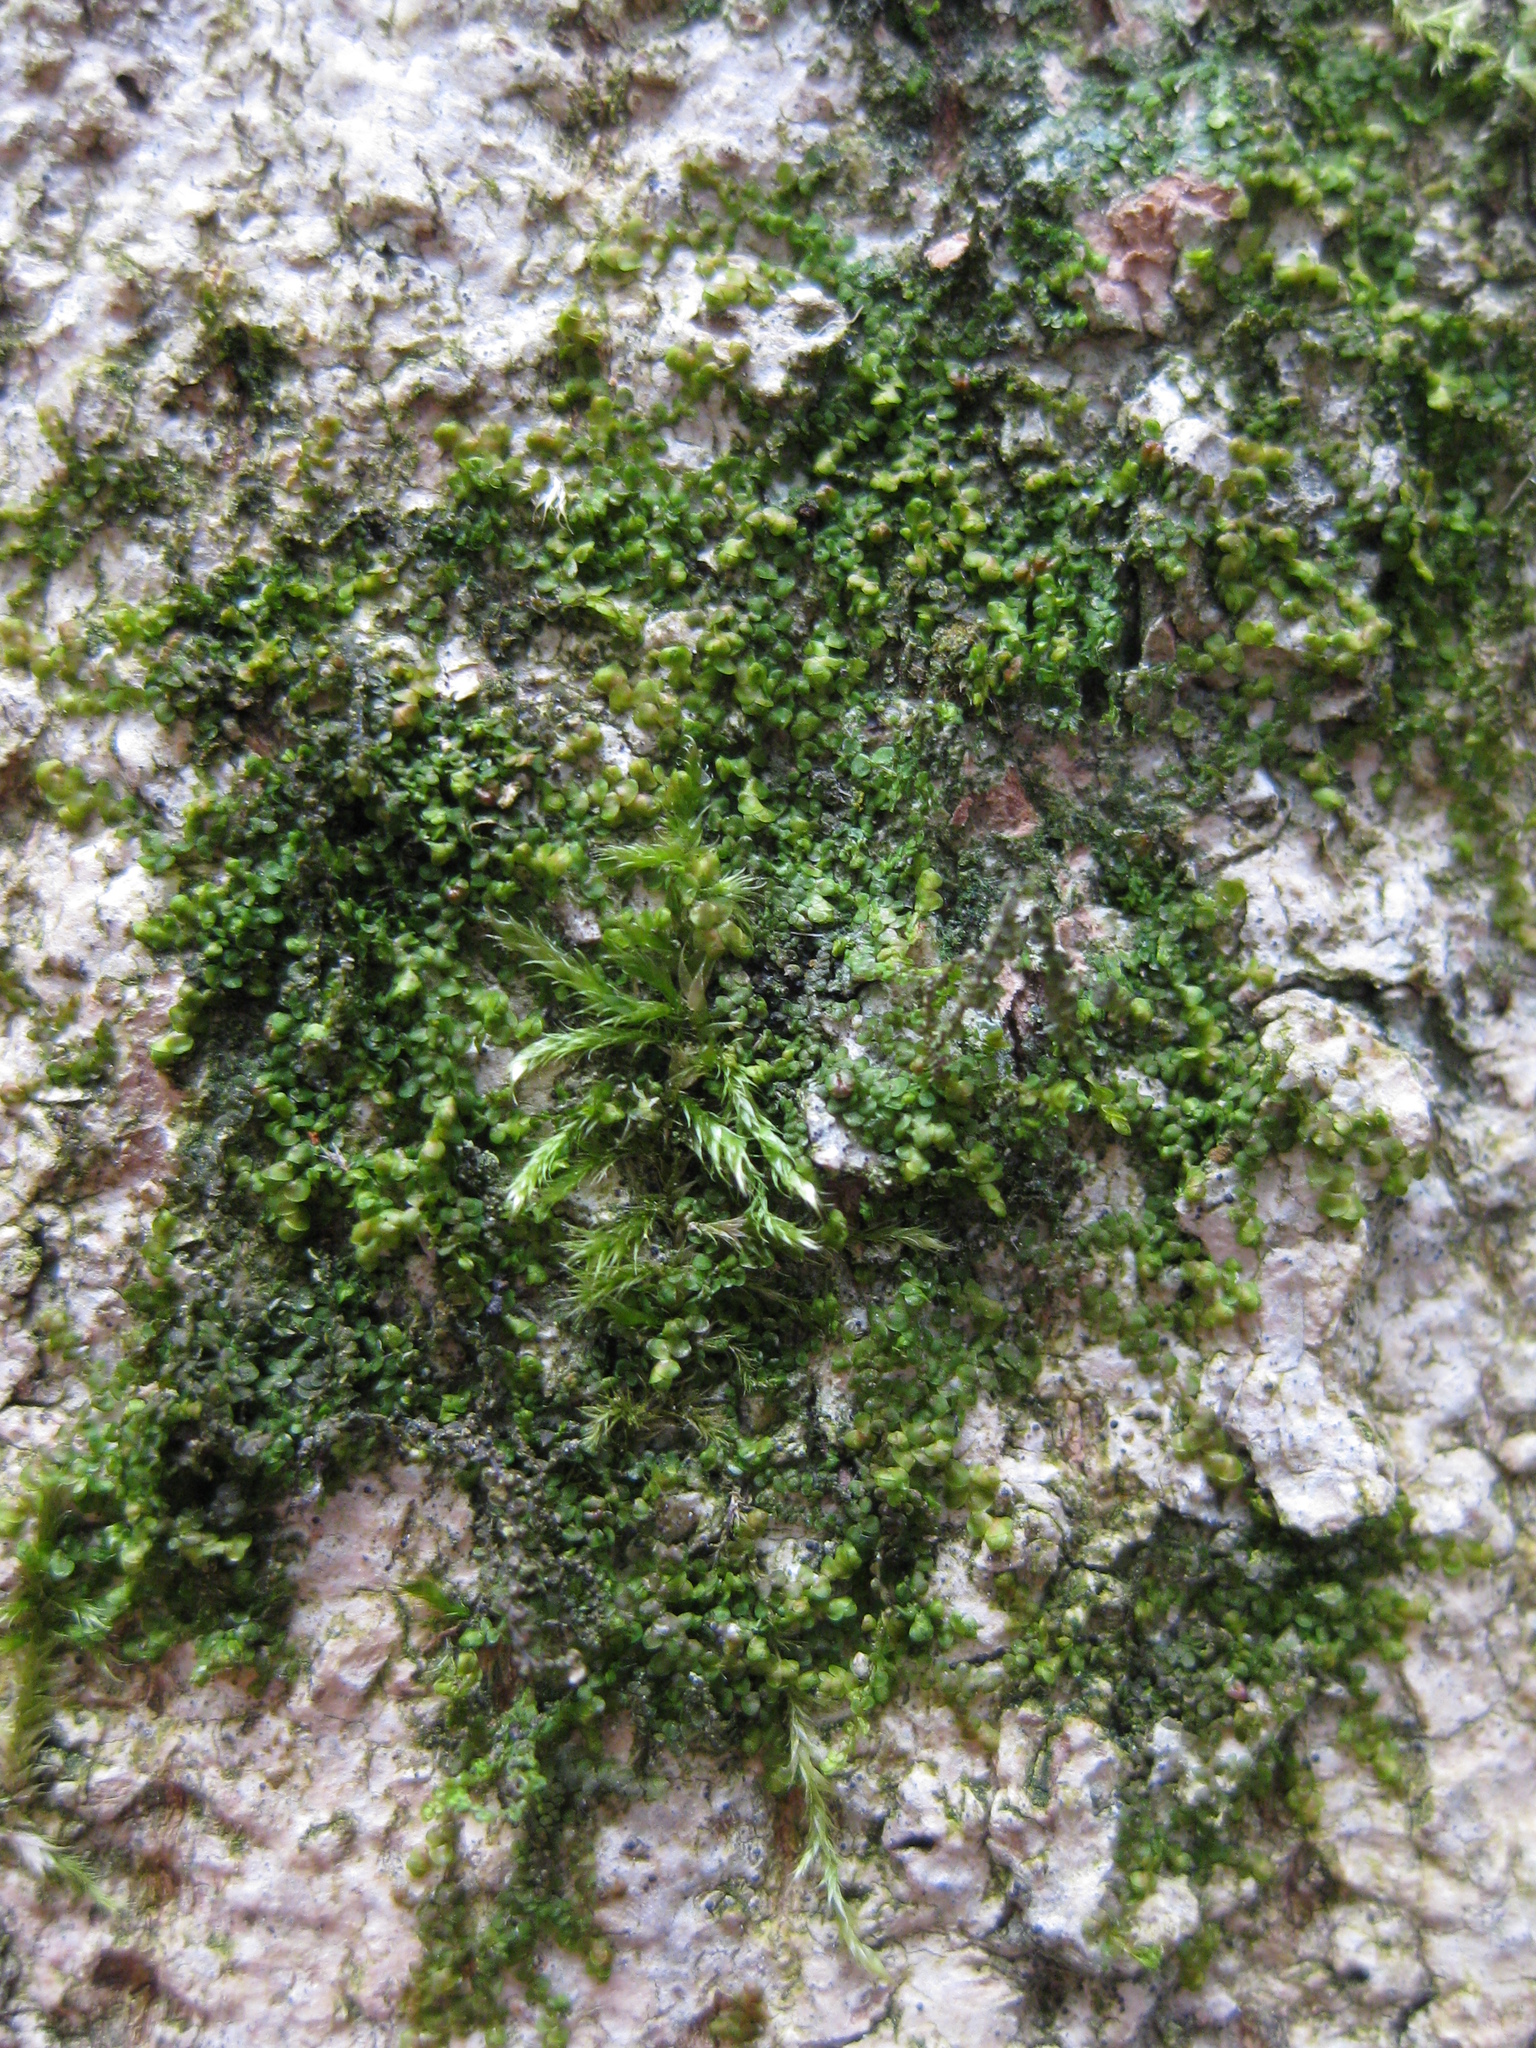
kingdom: Plantae
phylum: Marchantiophyta
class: Jungermanniopsida
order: Porellales
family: Frullaniaceae
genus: Frullania
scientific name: Frullania dilatata
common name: Dilated scalewort
